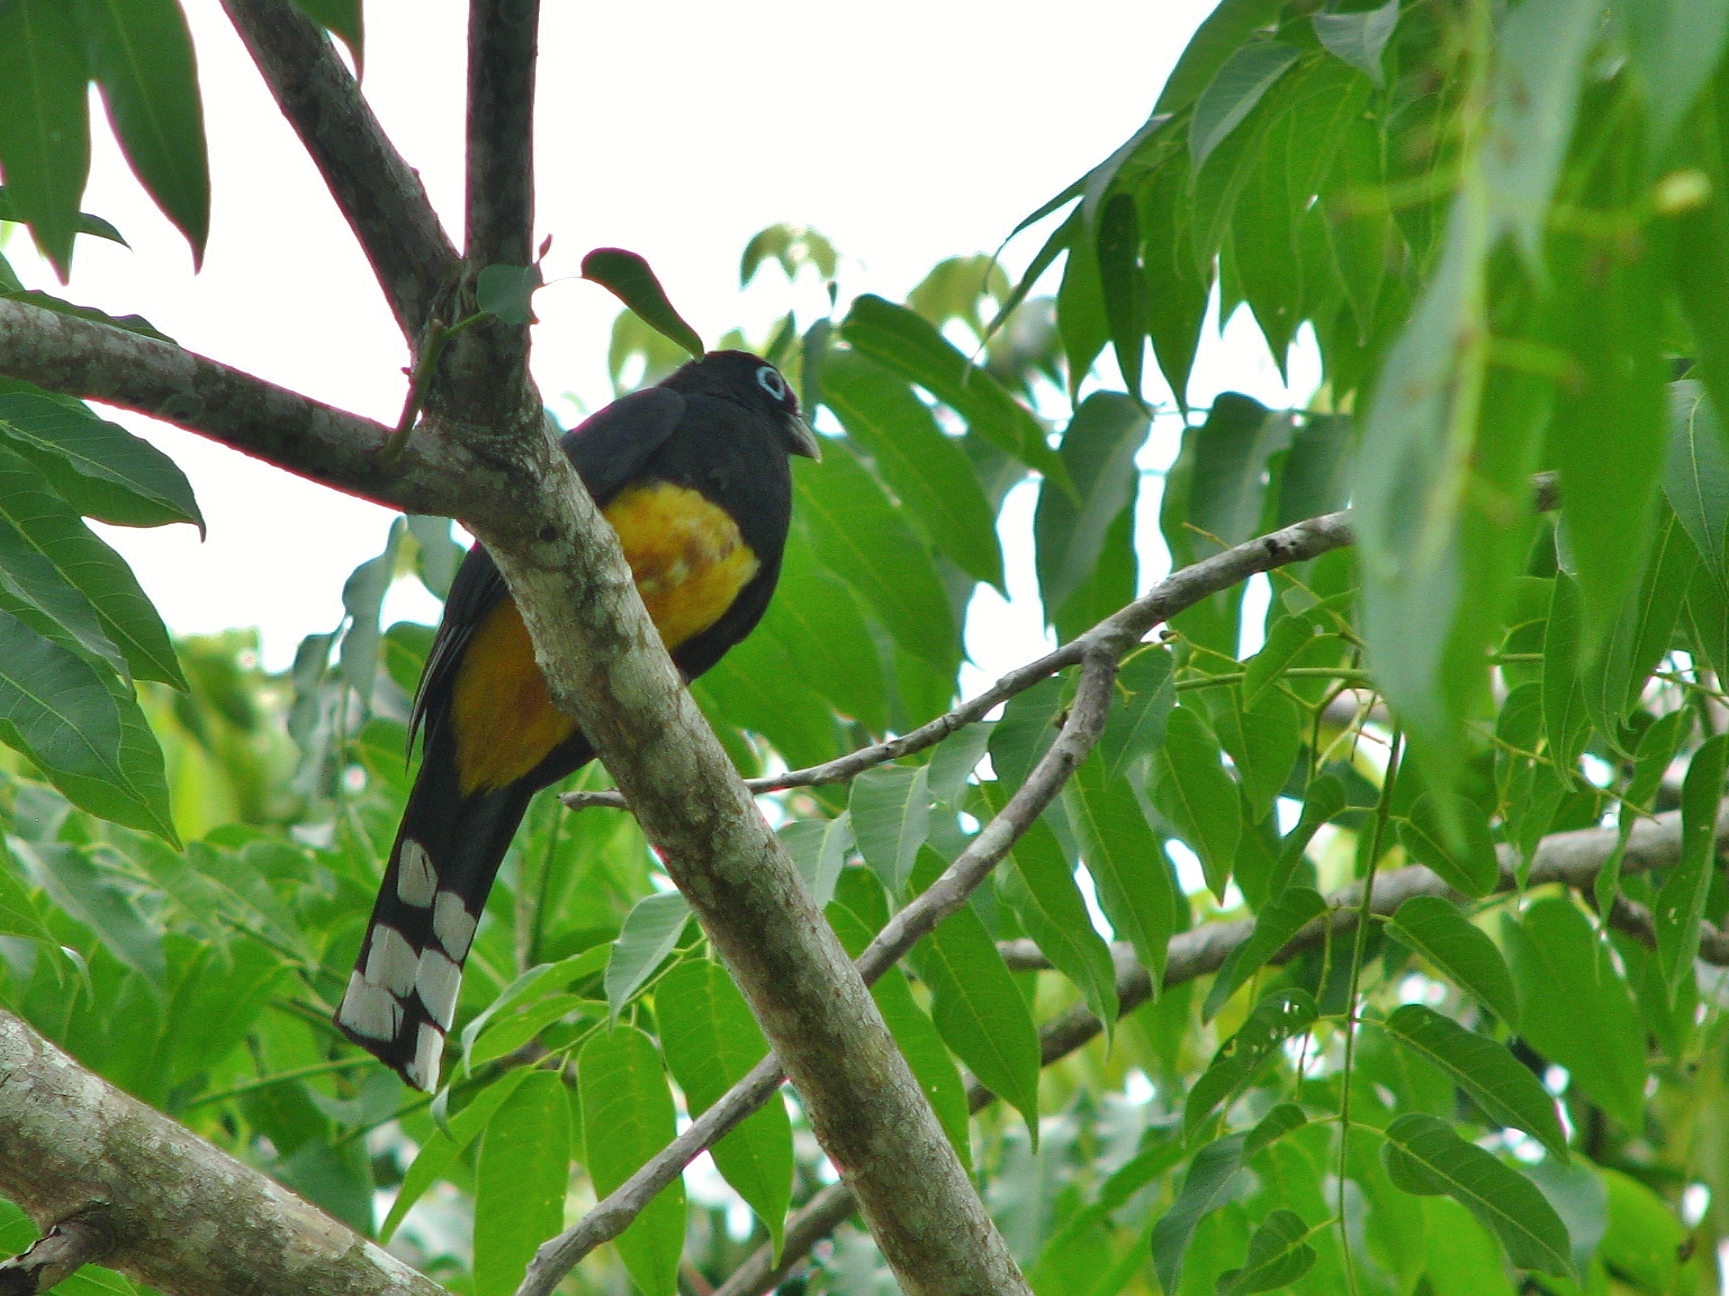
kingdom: Animalia
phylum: Chordata
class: Aves
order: Trogoniformes
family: Trogonidae
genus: Trogon
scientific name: Trogon melanocephalus
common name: Black-headed trogon
